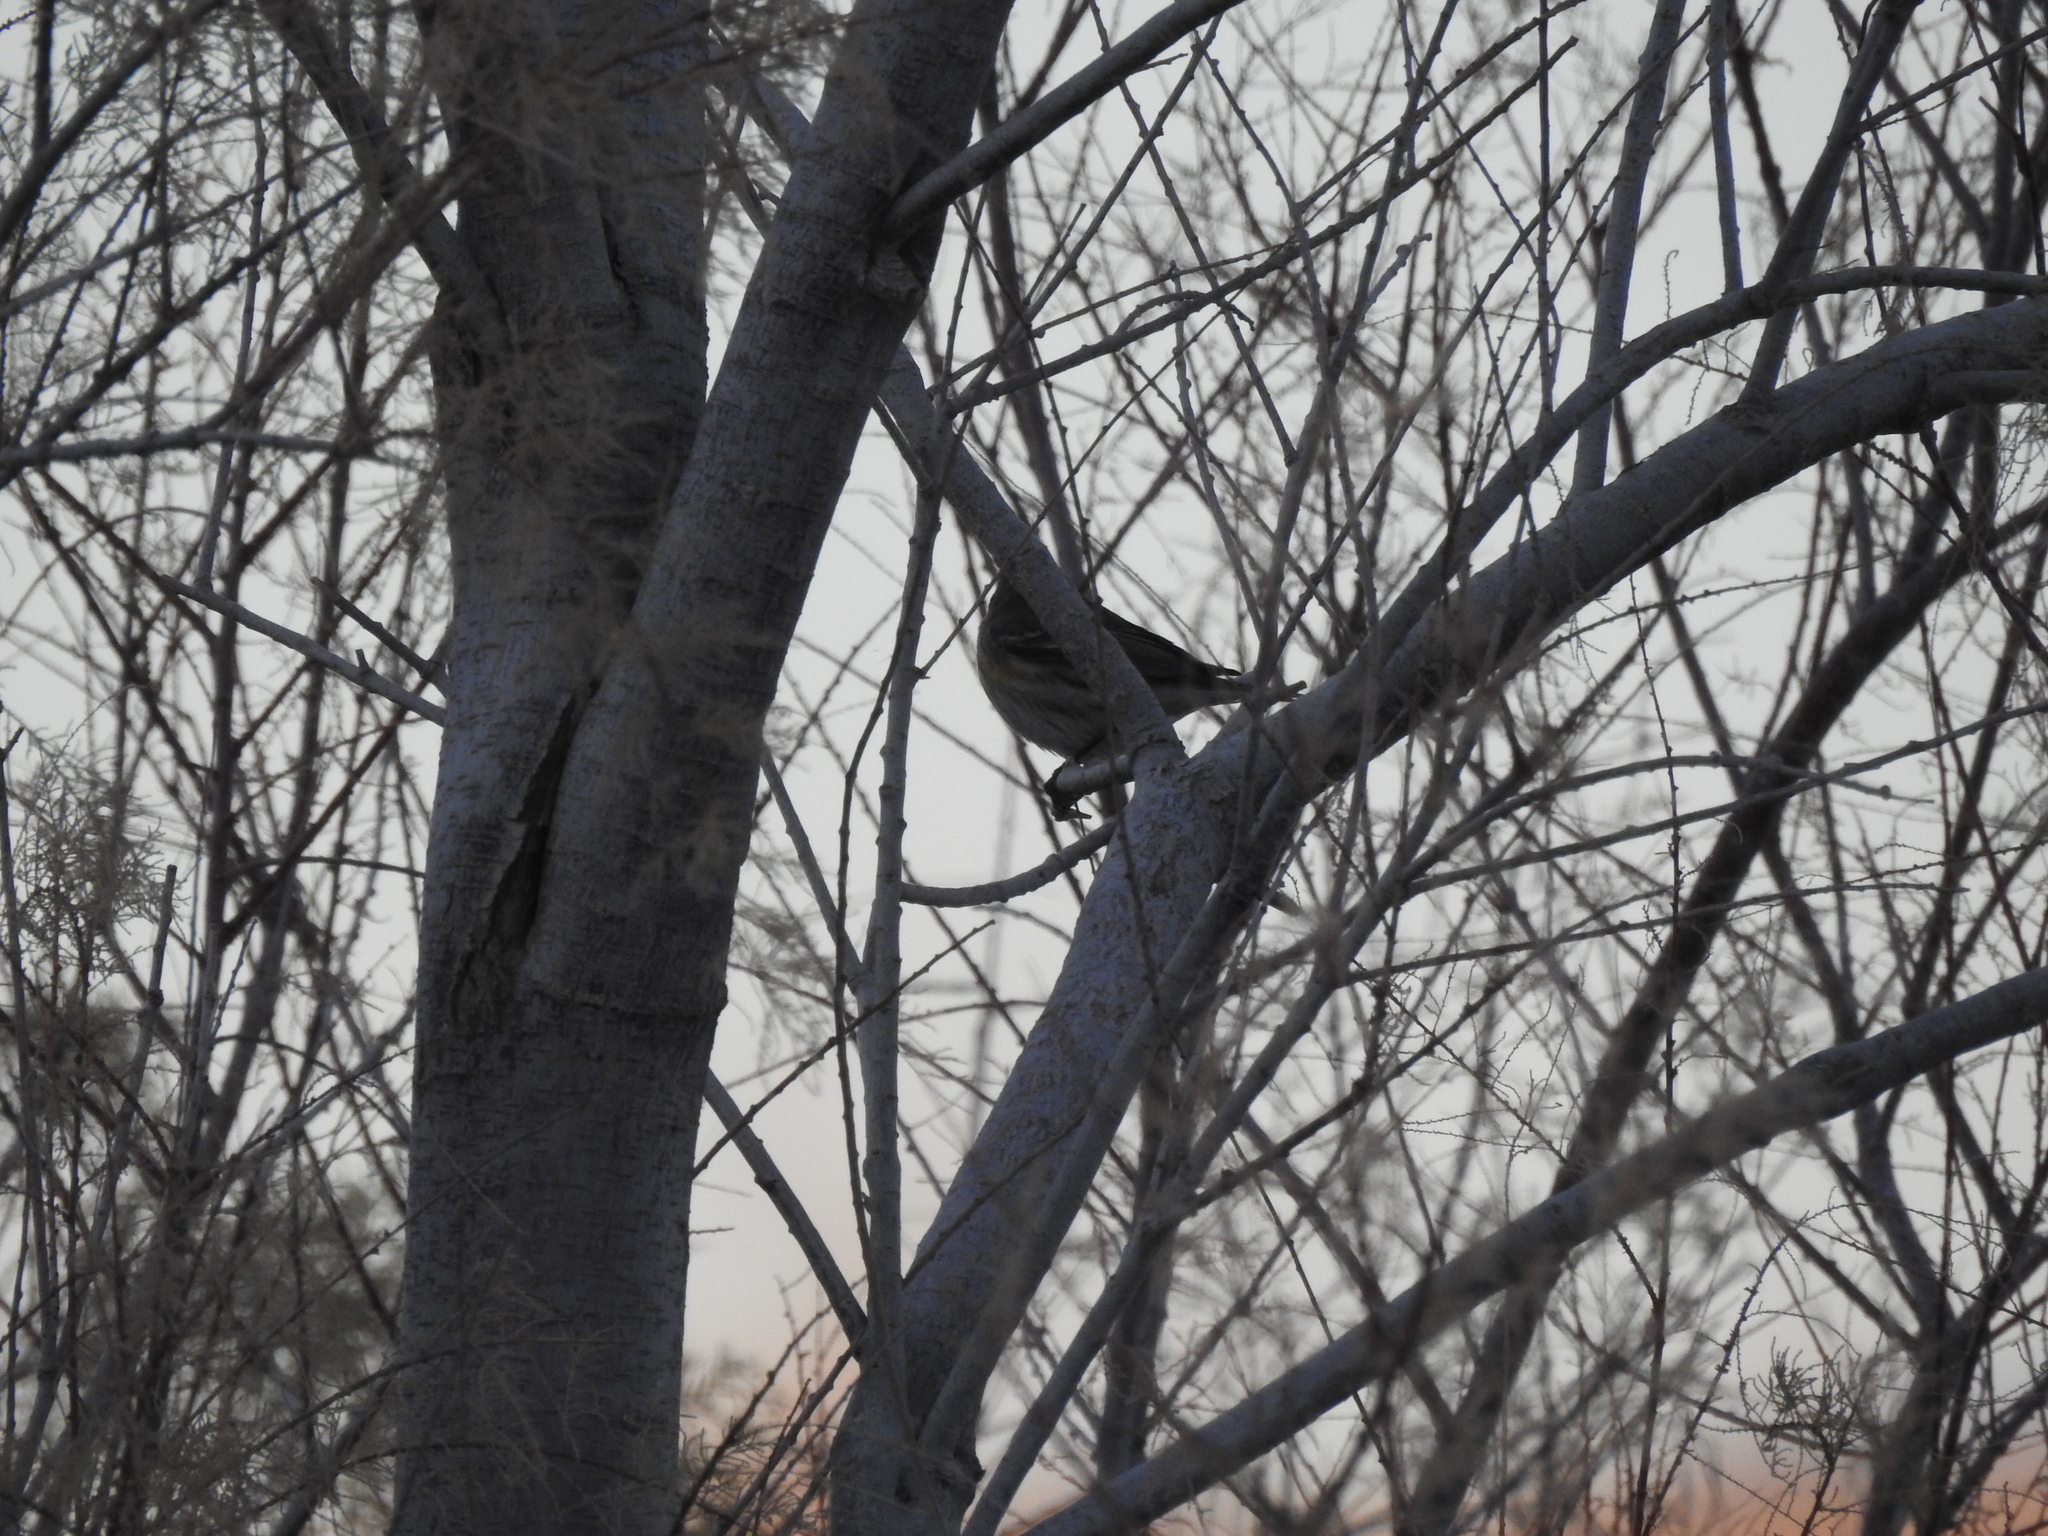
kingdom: Animalia
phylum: Chordata
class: Aves
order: Passeriformes
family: Parulidae
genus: Setophaga
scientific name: Setophaga coronata
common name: Myrtle warbler
